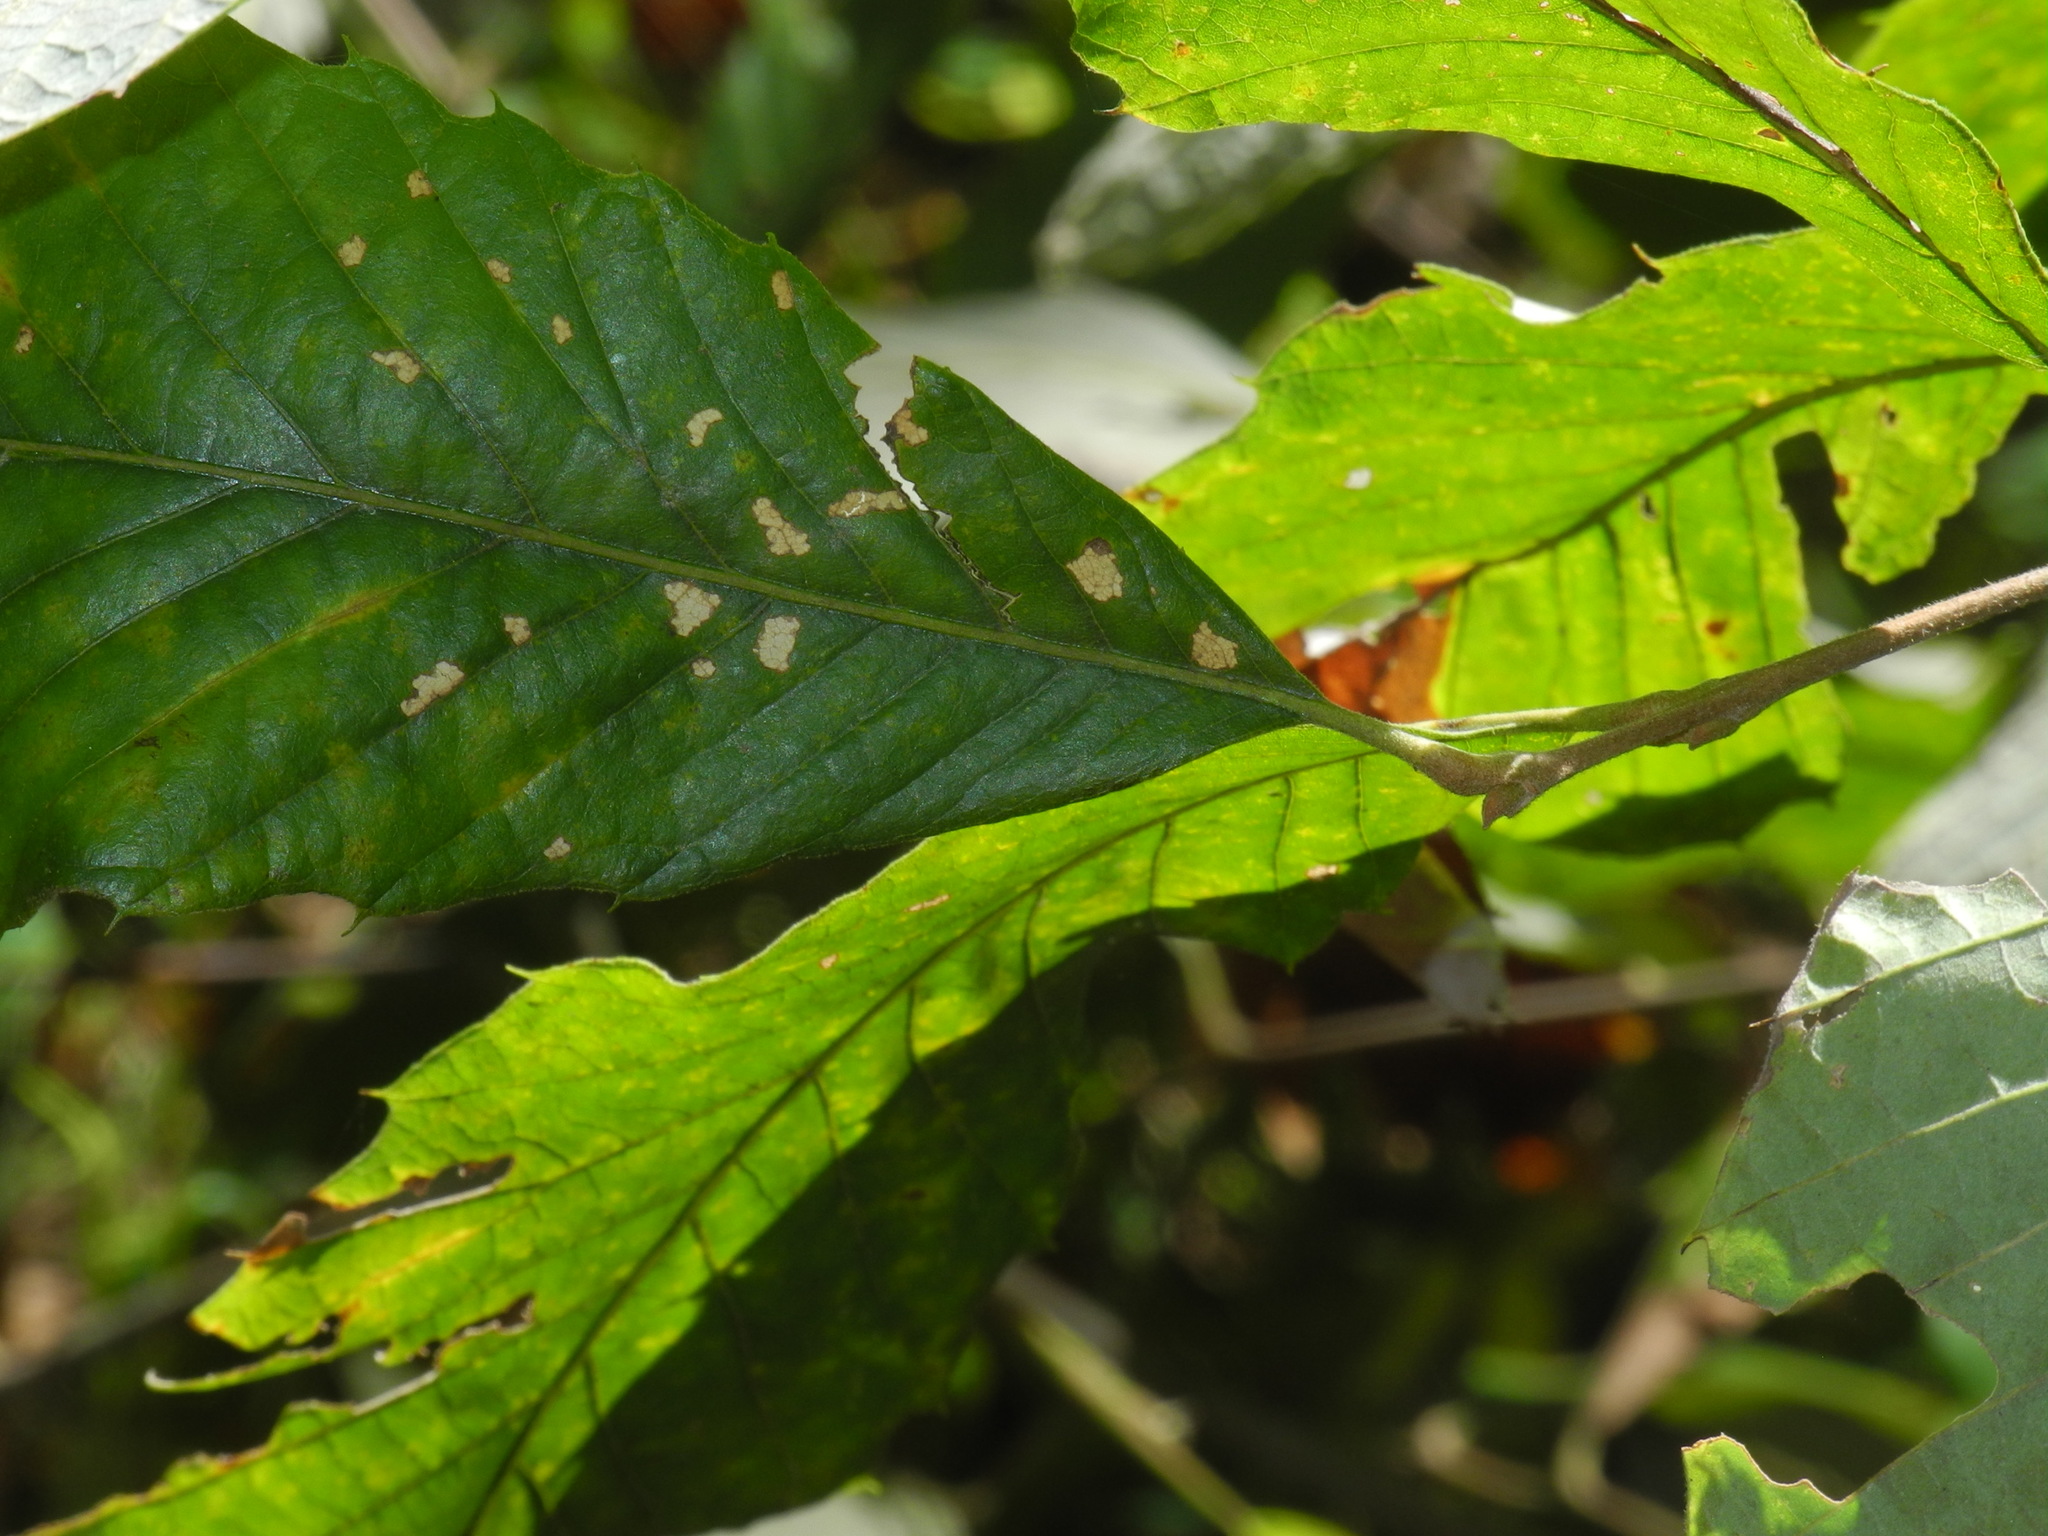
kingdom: Plantae
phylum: Tracheophyta
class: Magnoliopsida
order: Fagales
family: Fagaceae
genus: Castanea
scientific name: Castanea pumila
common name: Chinkapin
